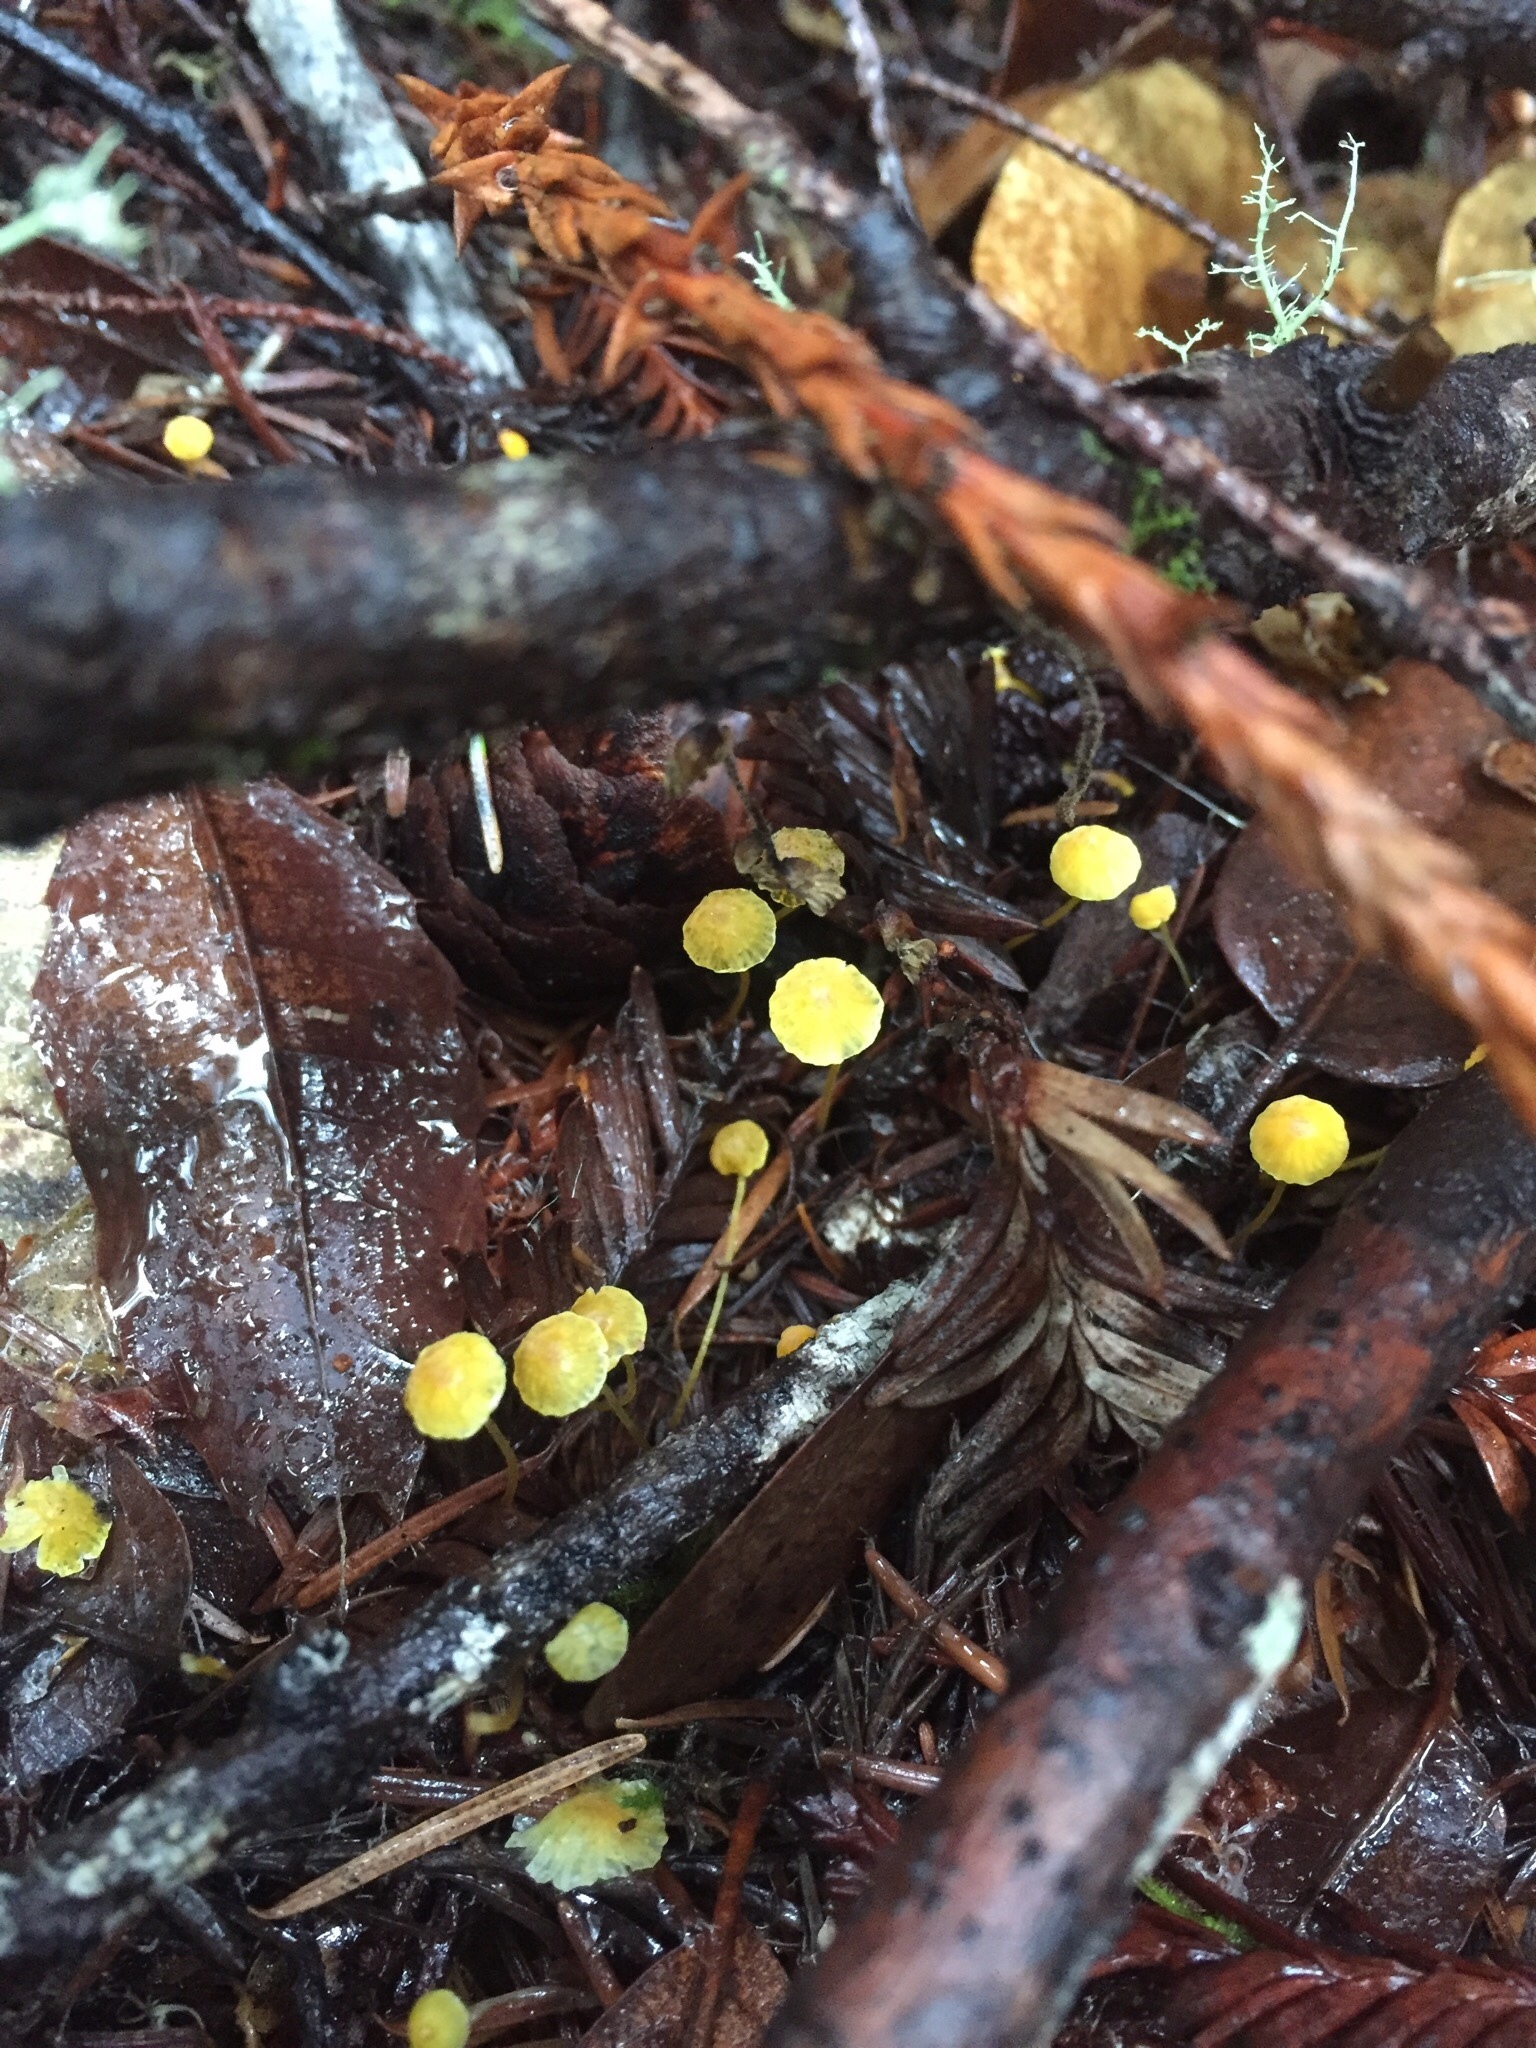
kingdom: Fungi
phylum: Basidiomycota
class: Agaricomycetes
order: Agaricales
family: Mycenaceae
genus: Mycena
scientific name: Mycena oregonensis
